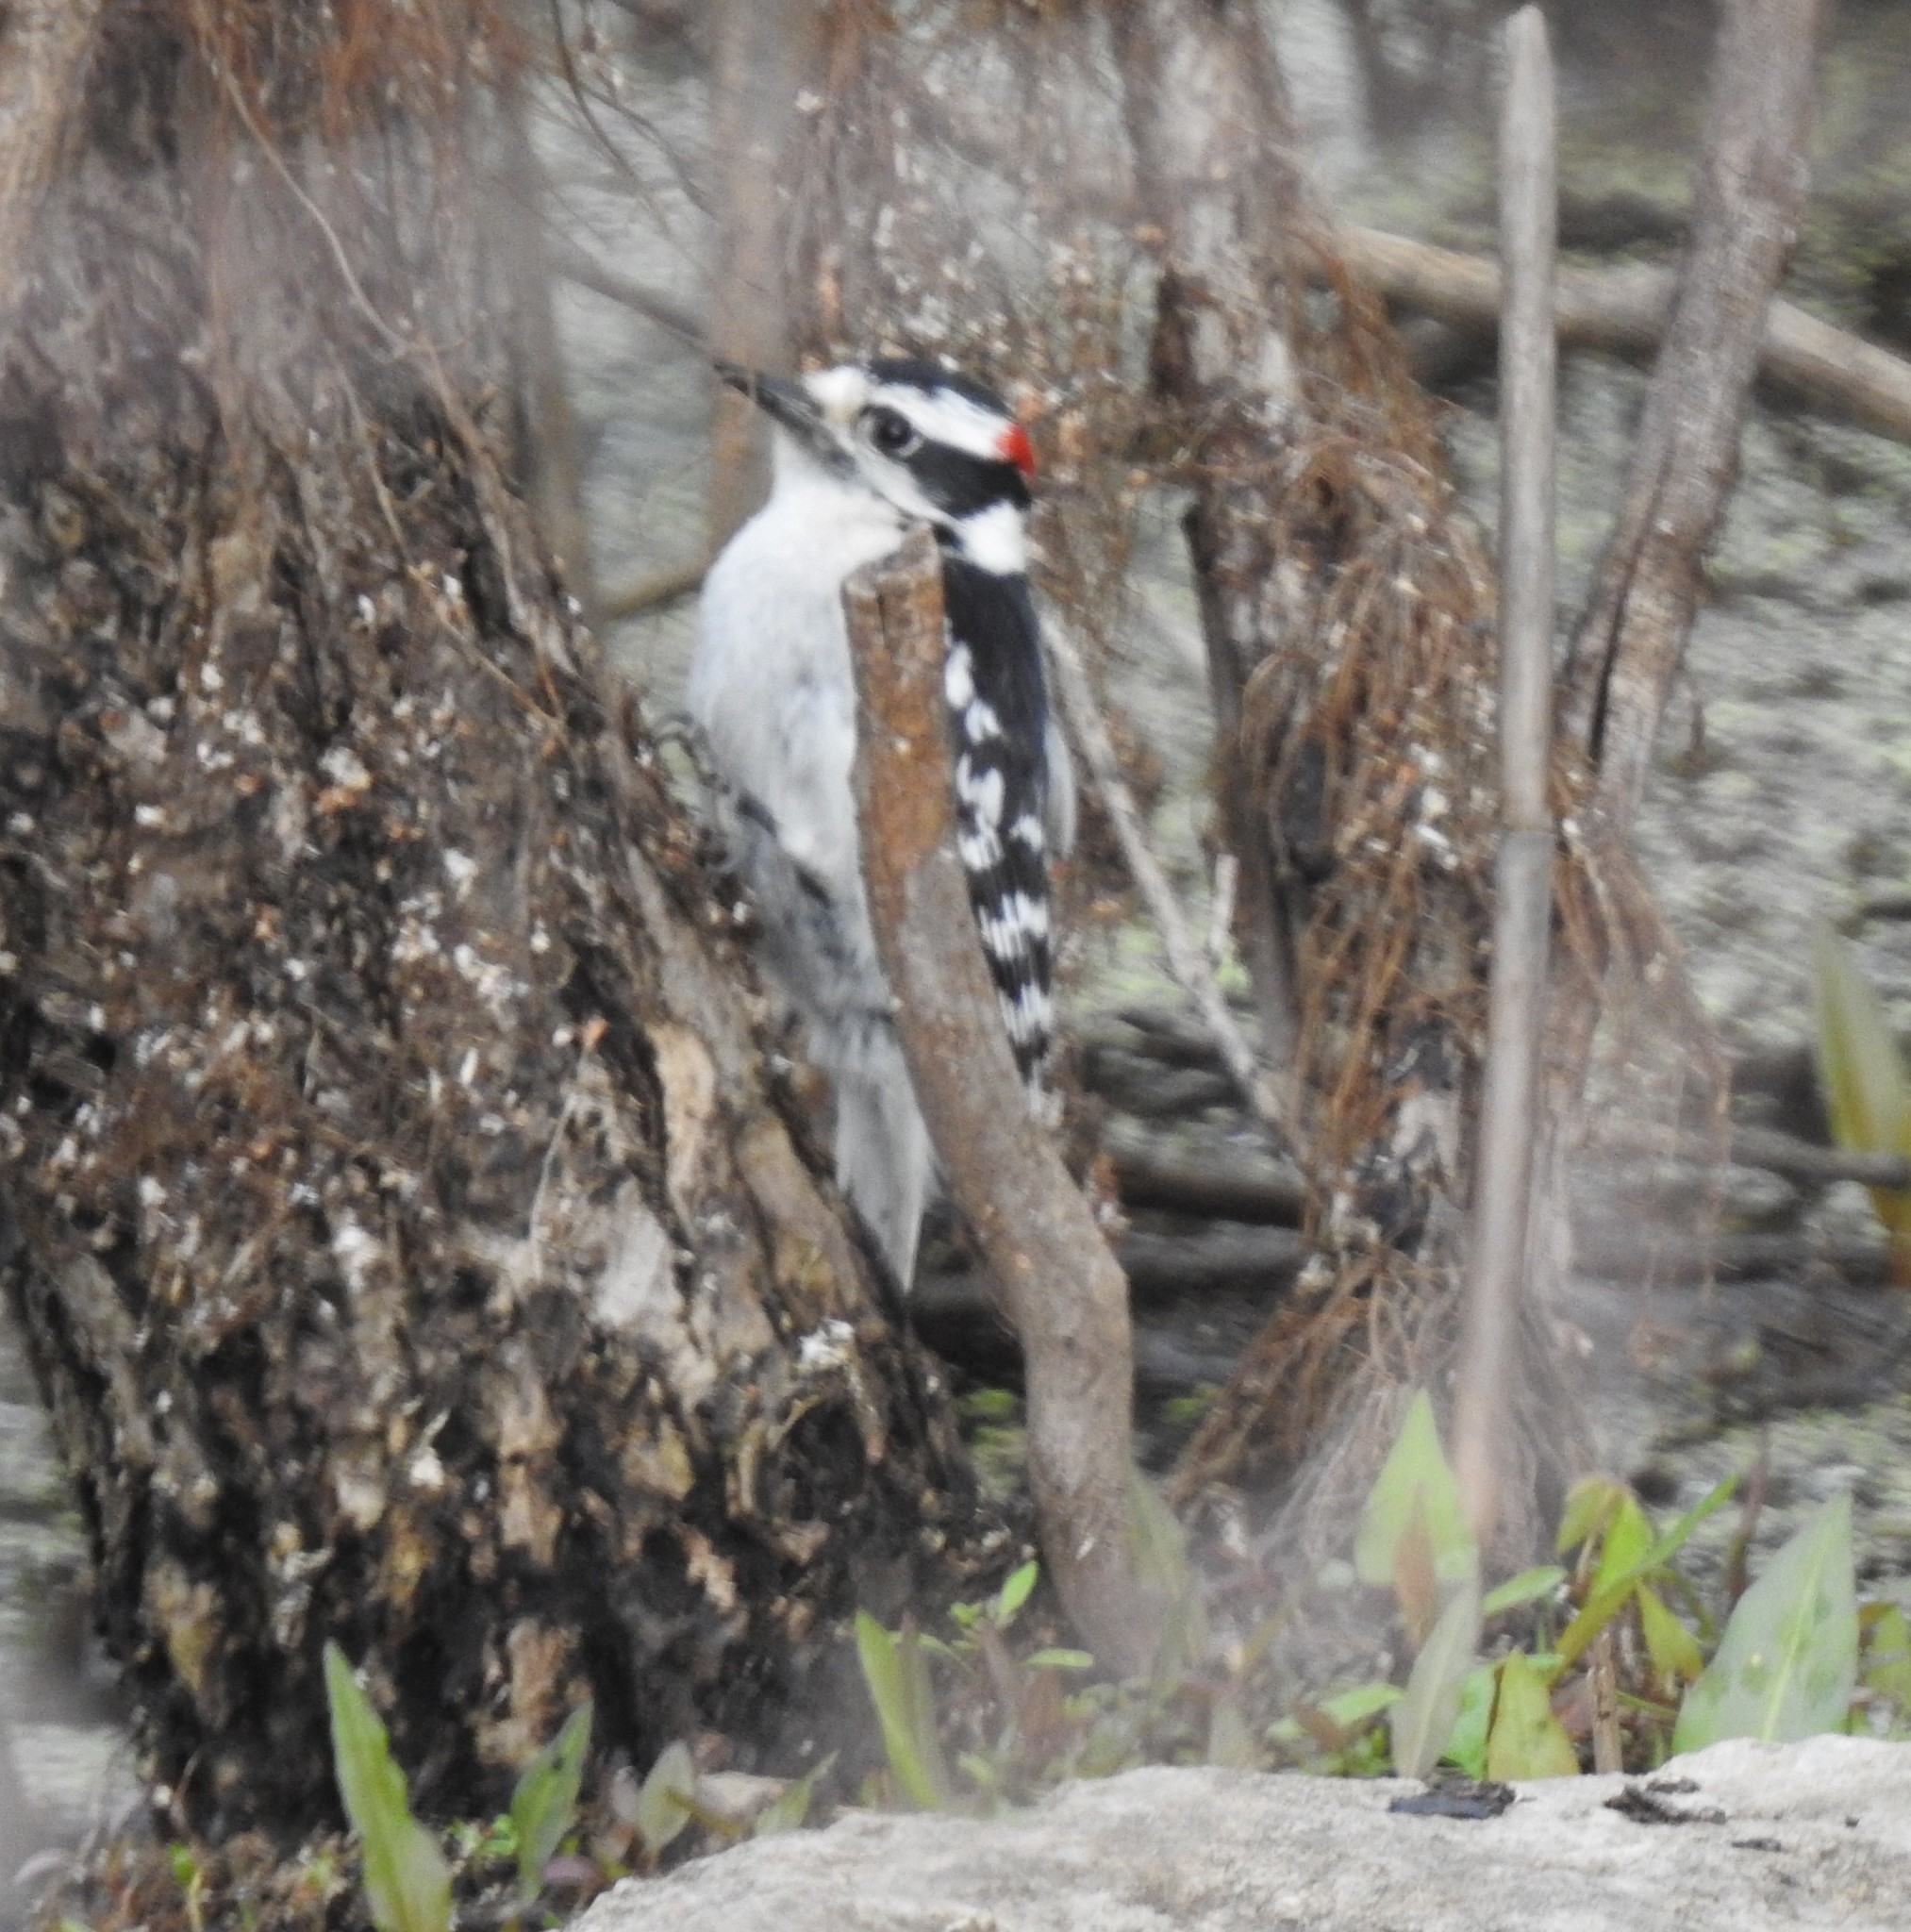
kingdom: Animalia
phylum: Chordata
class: Aves
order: Piciformes
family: Picidae
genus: Dryobates
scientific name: Dryobates pubescens
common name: Downy woodpecker
